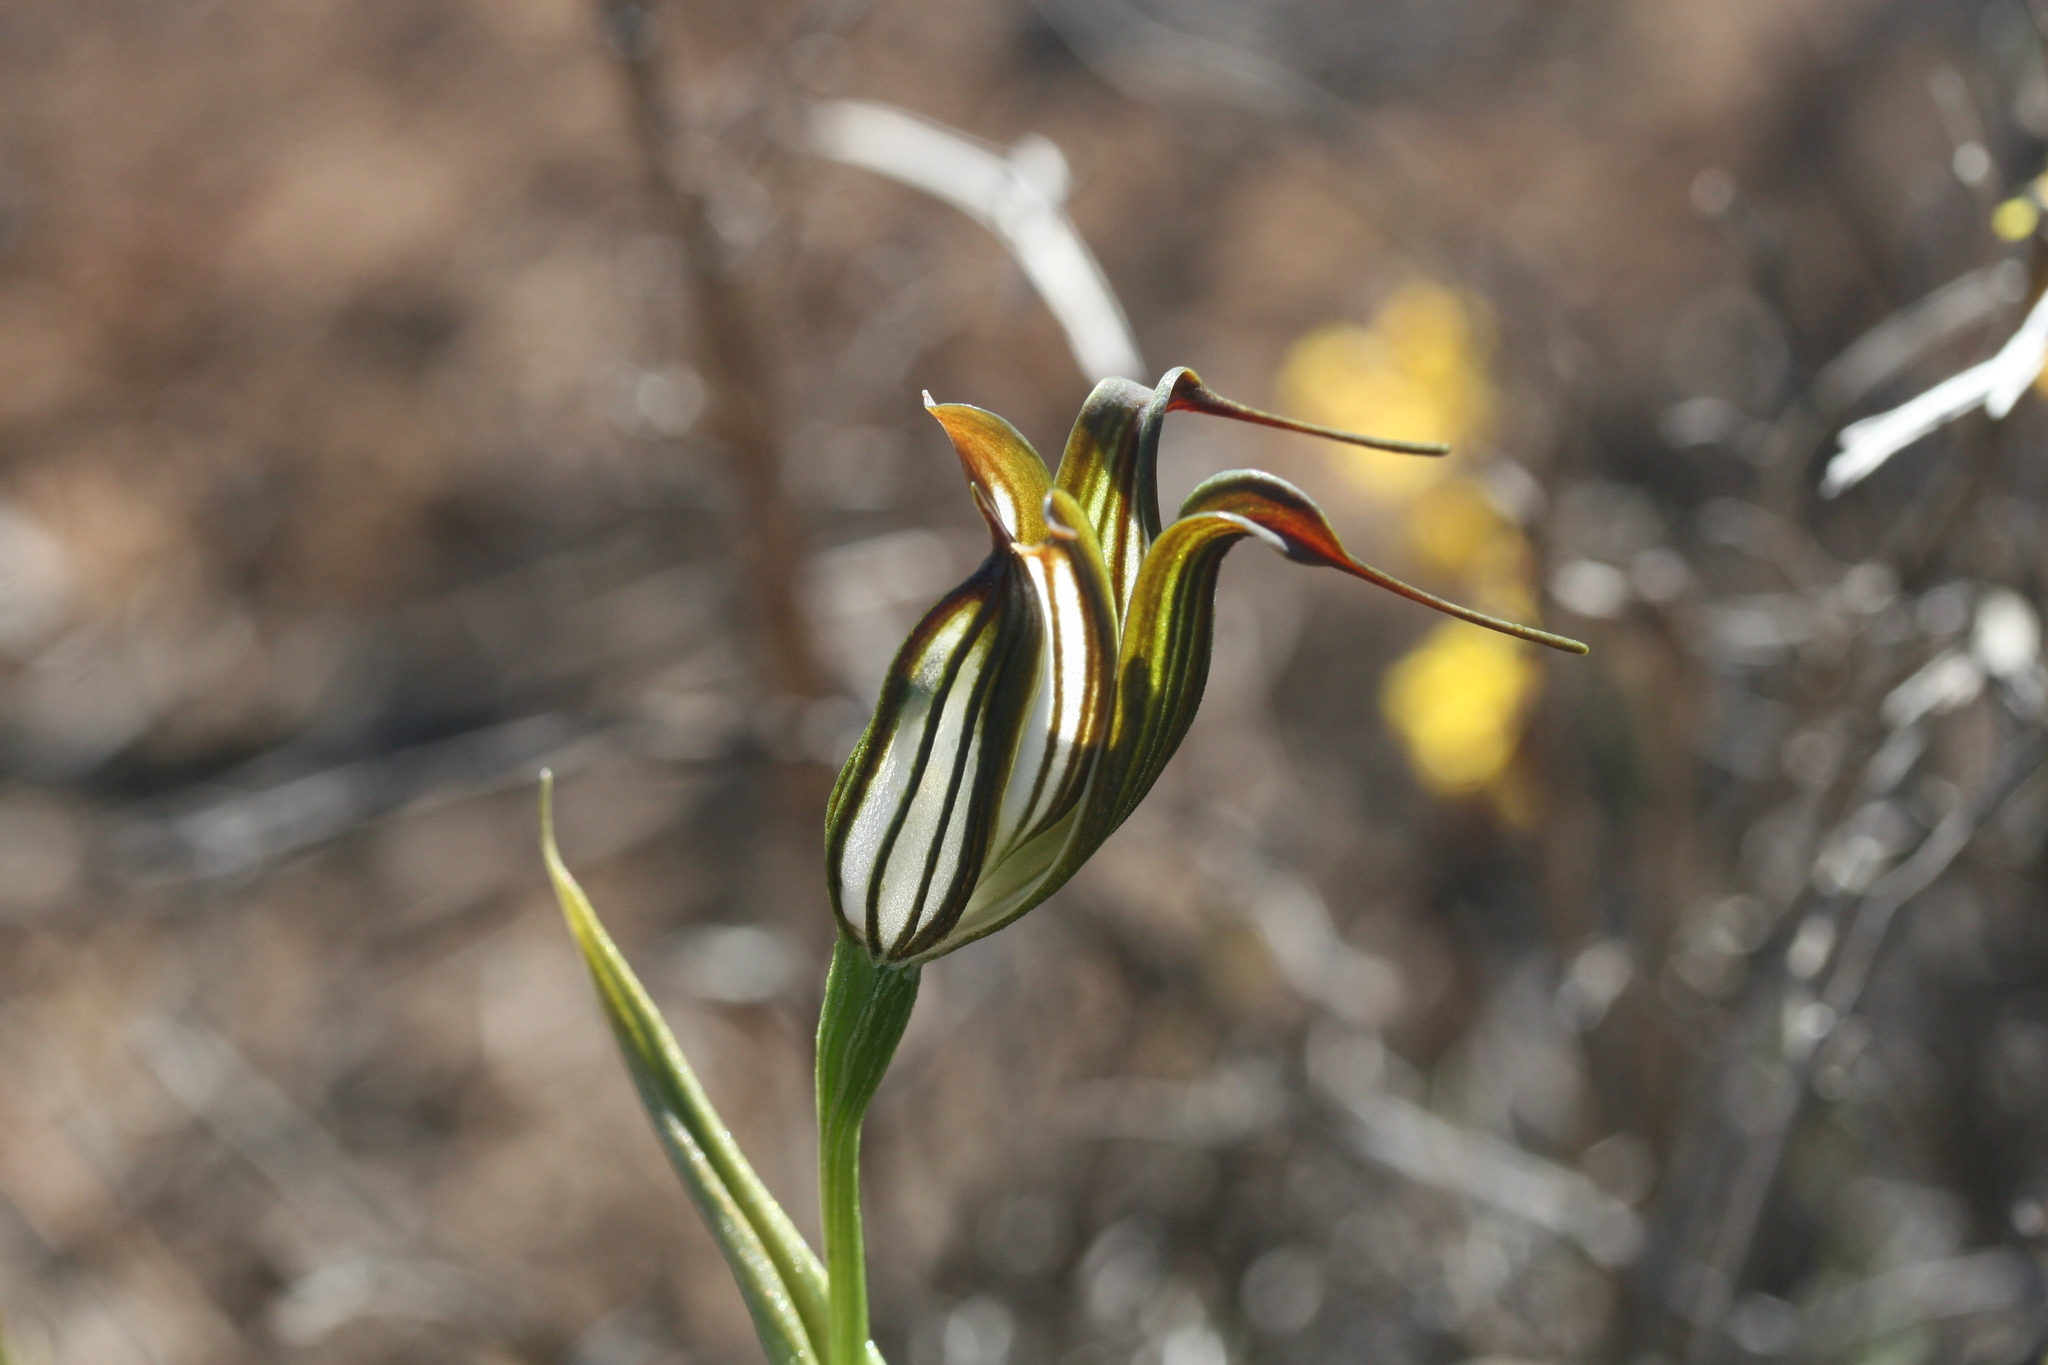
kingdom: Plantae
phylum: Tracheophyta
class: Liliopsida
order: Asparagales
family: Orchidaceae
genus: Pterostylis
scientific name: Pterostylis recurva
